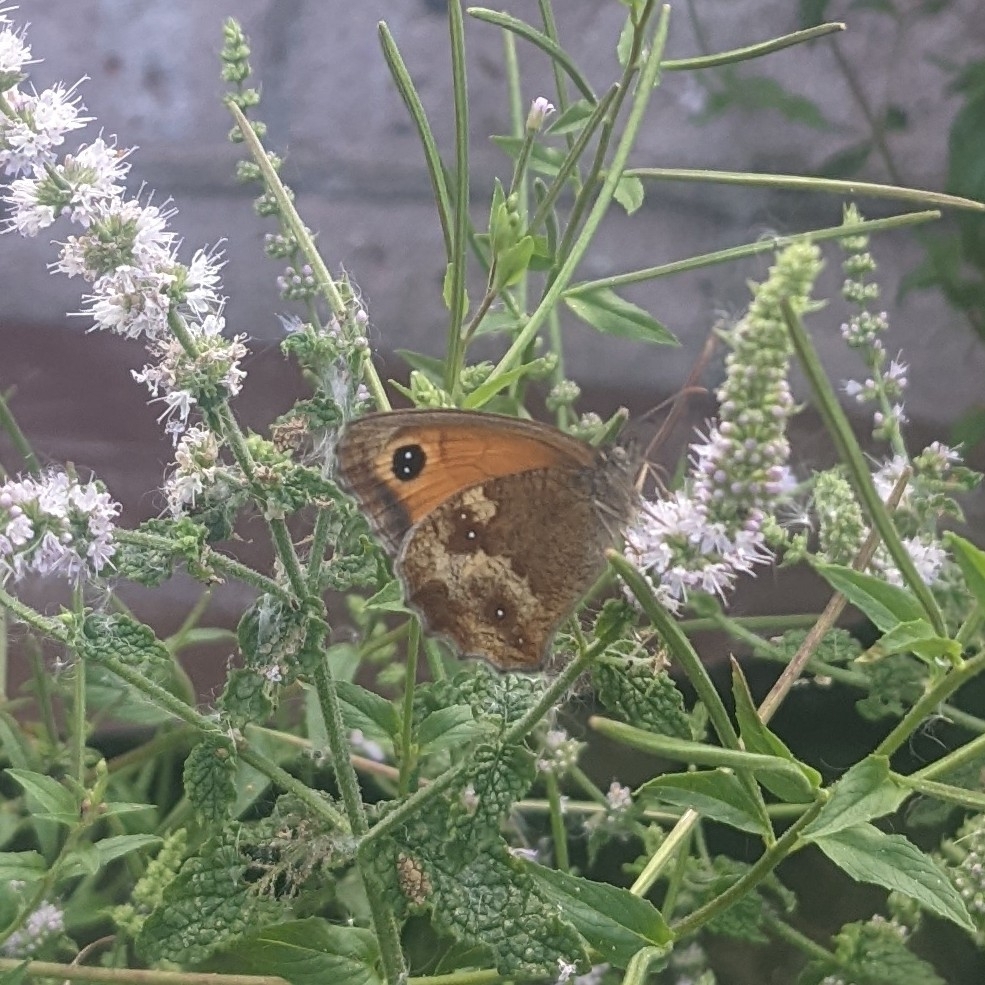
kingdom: Animalia
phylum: Arthropoda
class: Insecta
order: Lepidoptera
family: Nymphalidae
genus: Pyronia
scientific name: Pyronia tithonus
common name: Gatekeeper
